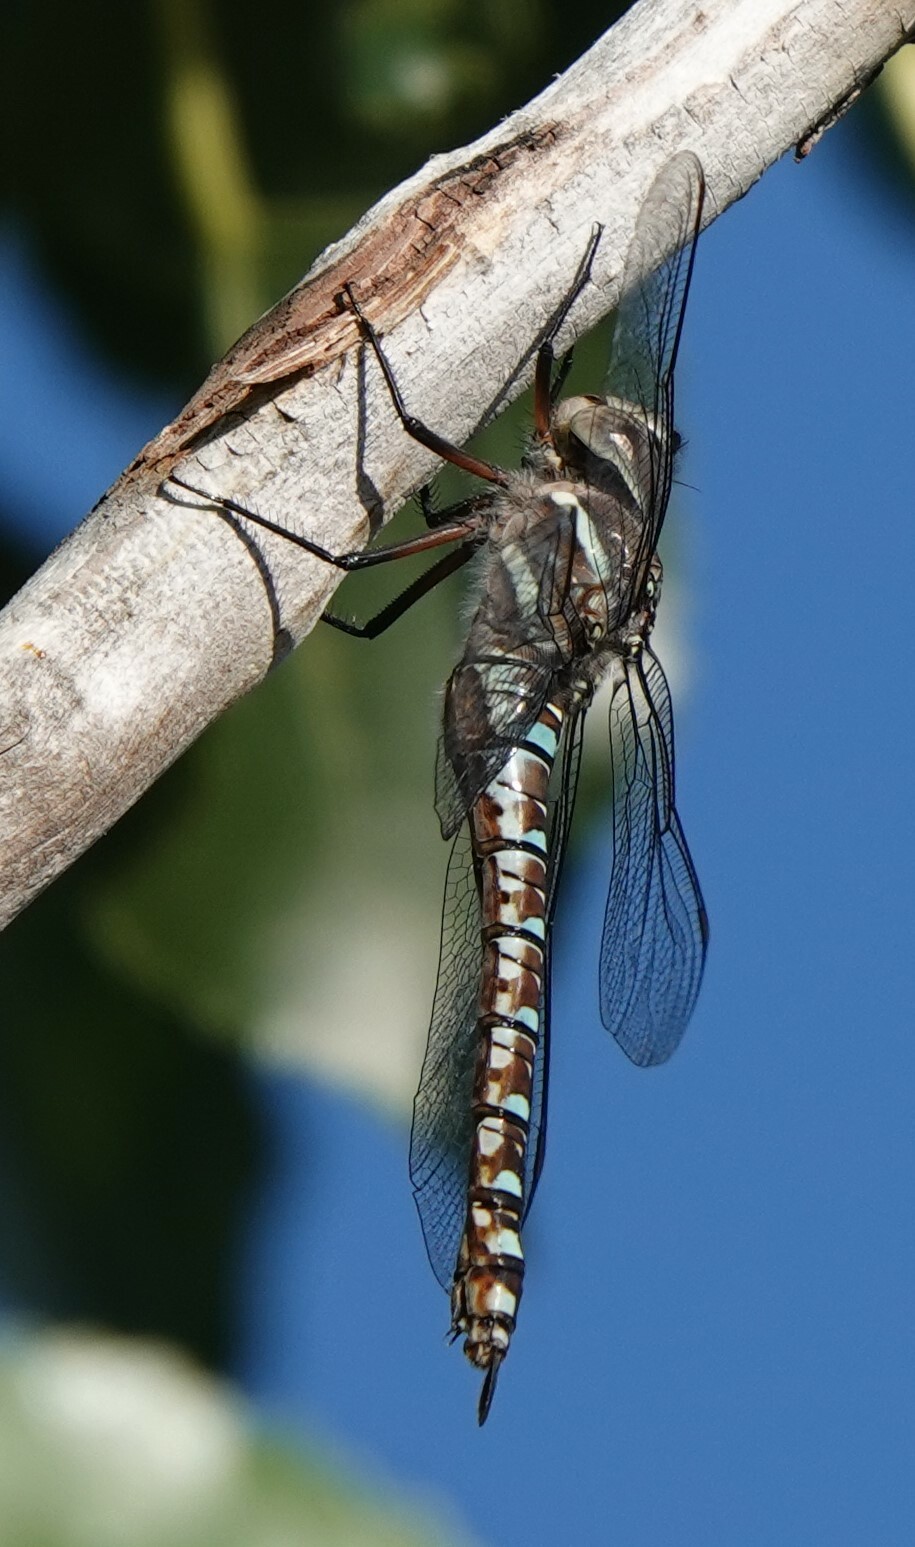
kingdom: Animalia
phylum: Arthropoda
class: Insecta
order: Odonata
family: Aeshnidae
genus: Aeshna
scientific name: Aeshna palmata
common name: Paddle-tailed darner
